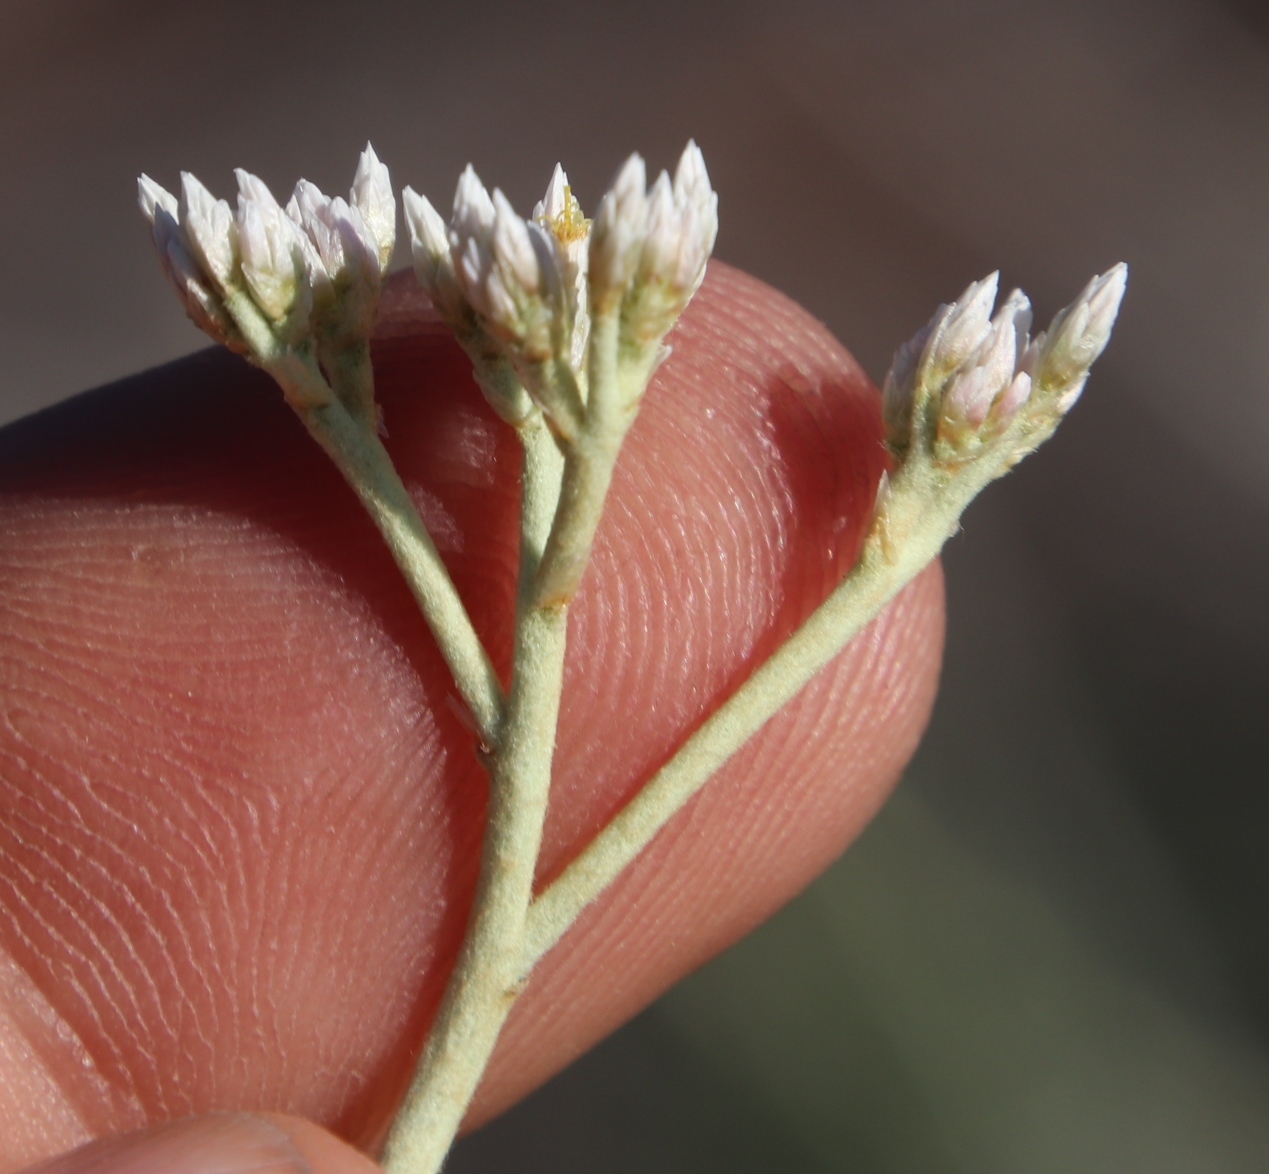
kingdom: Plantae
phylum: Tracheophyta
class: Magnoliopsida
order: Asterales
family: Asteraceae
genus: Helichrysum
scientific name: Helichrysum zeyheri
